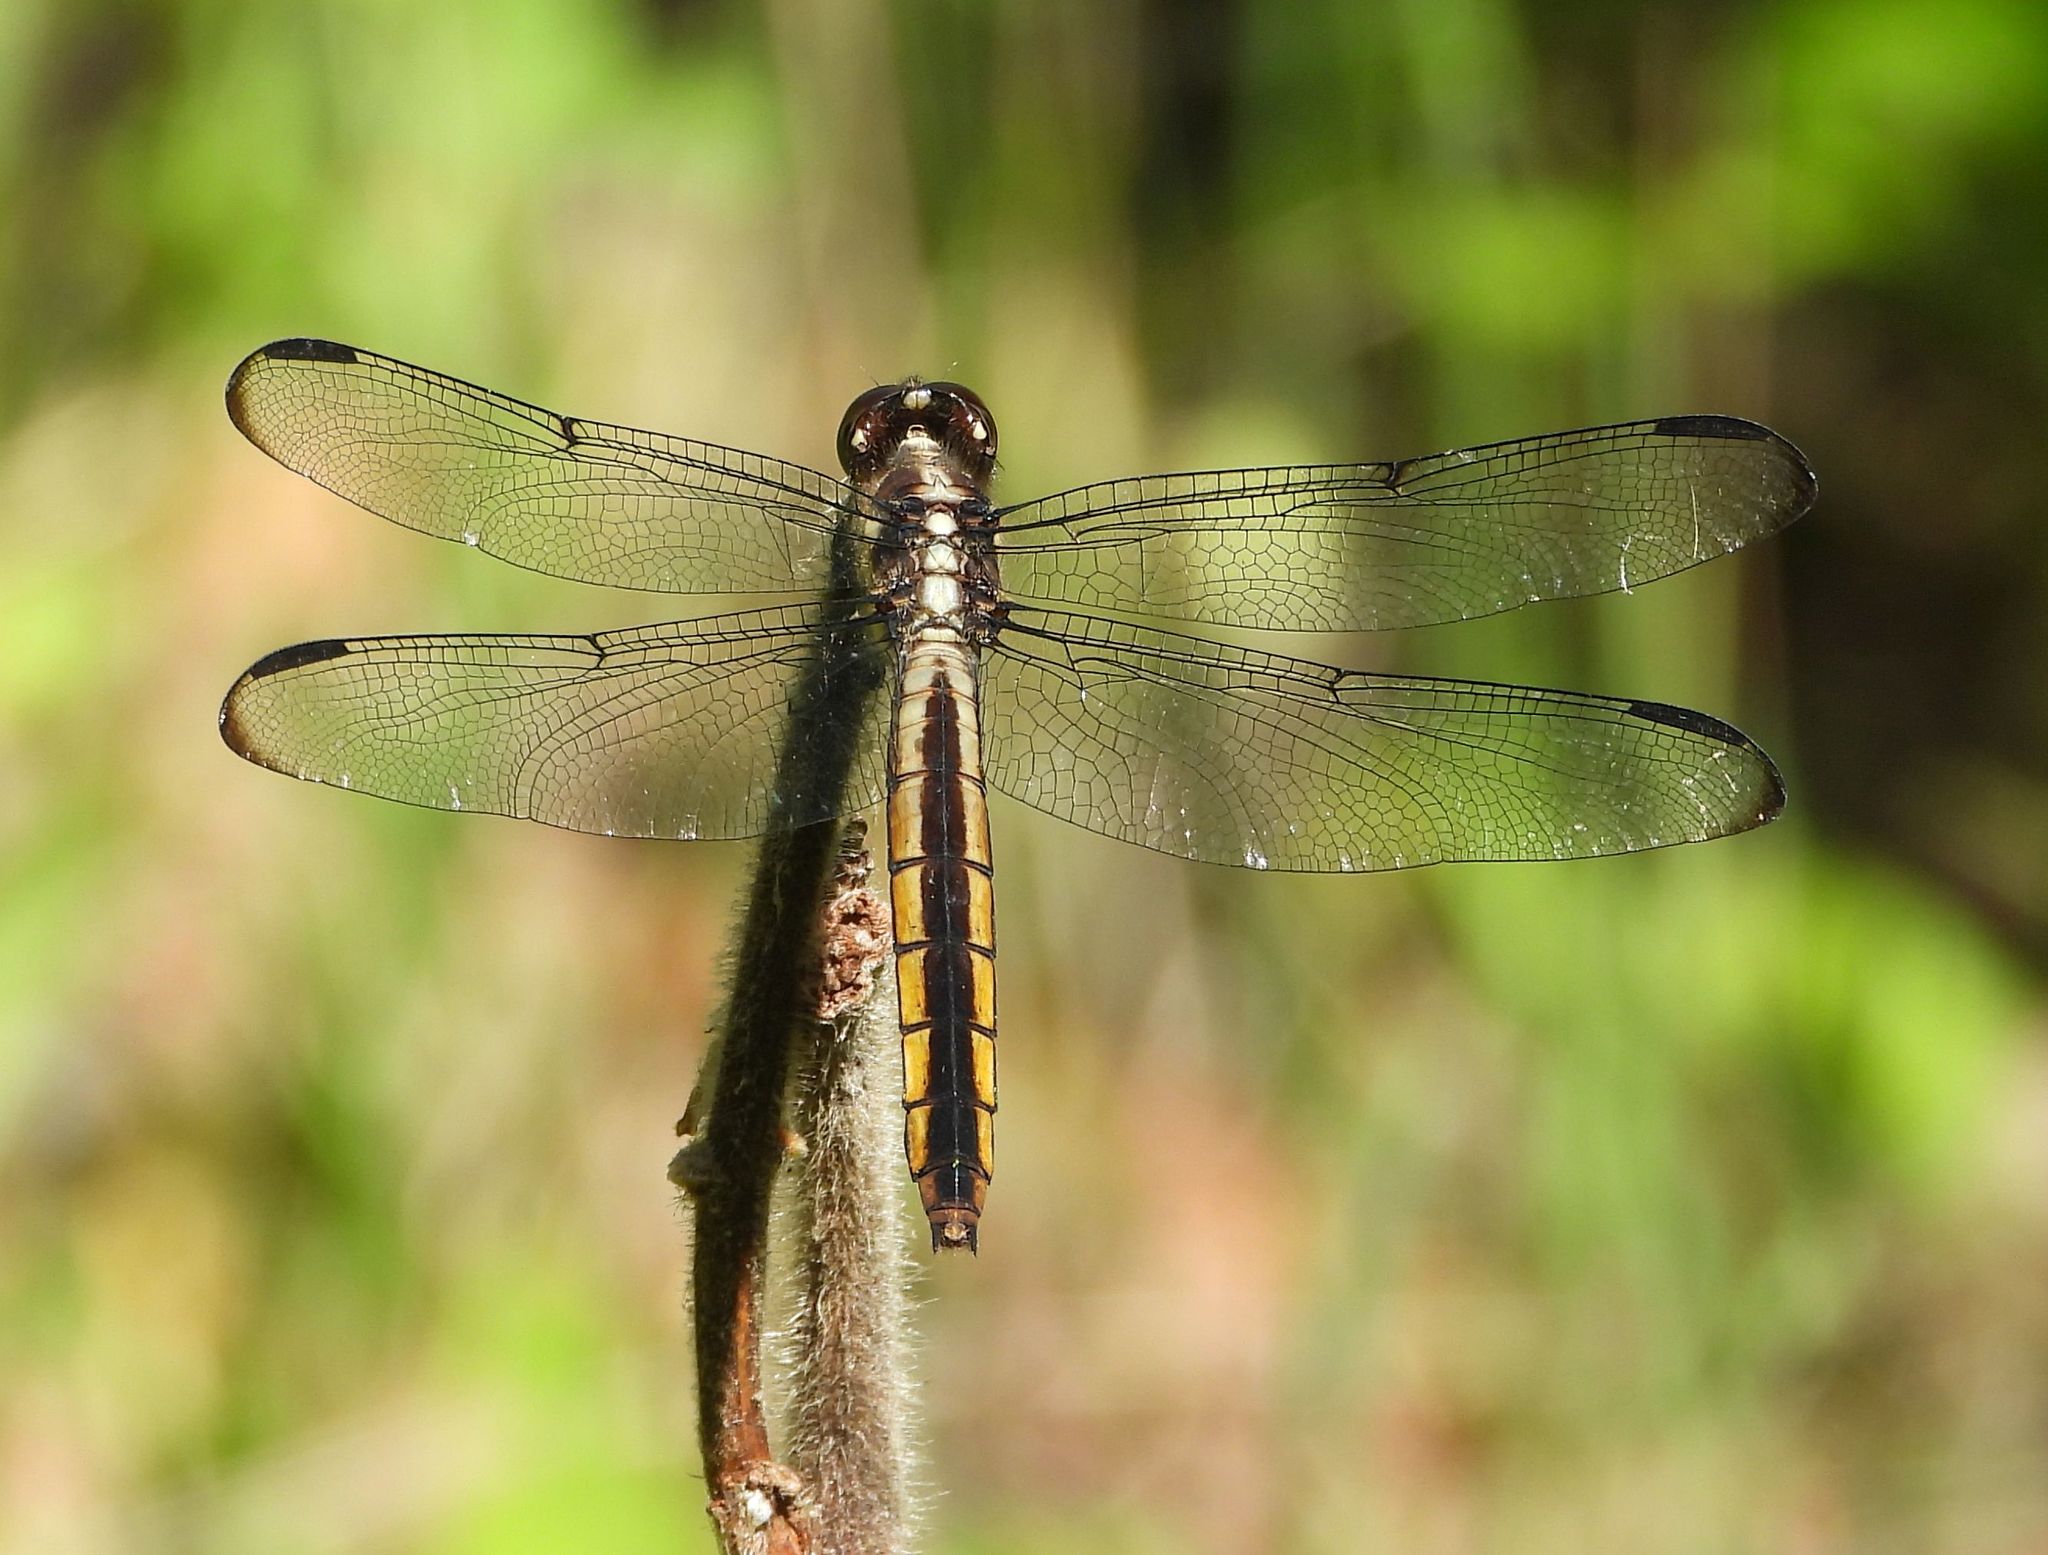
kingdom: Animalia
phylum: Arthropoda
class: Insecta
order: Odonata
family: Libellulidae
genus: Libellula
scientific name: Libellula incesta
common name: Slaty skimmer
